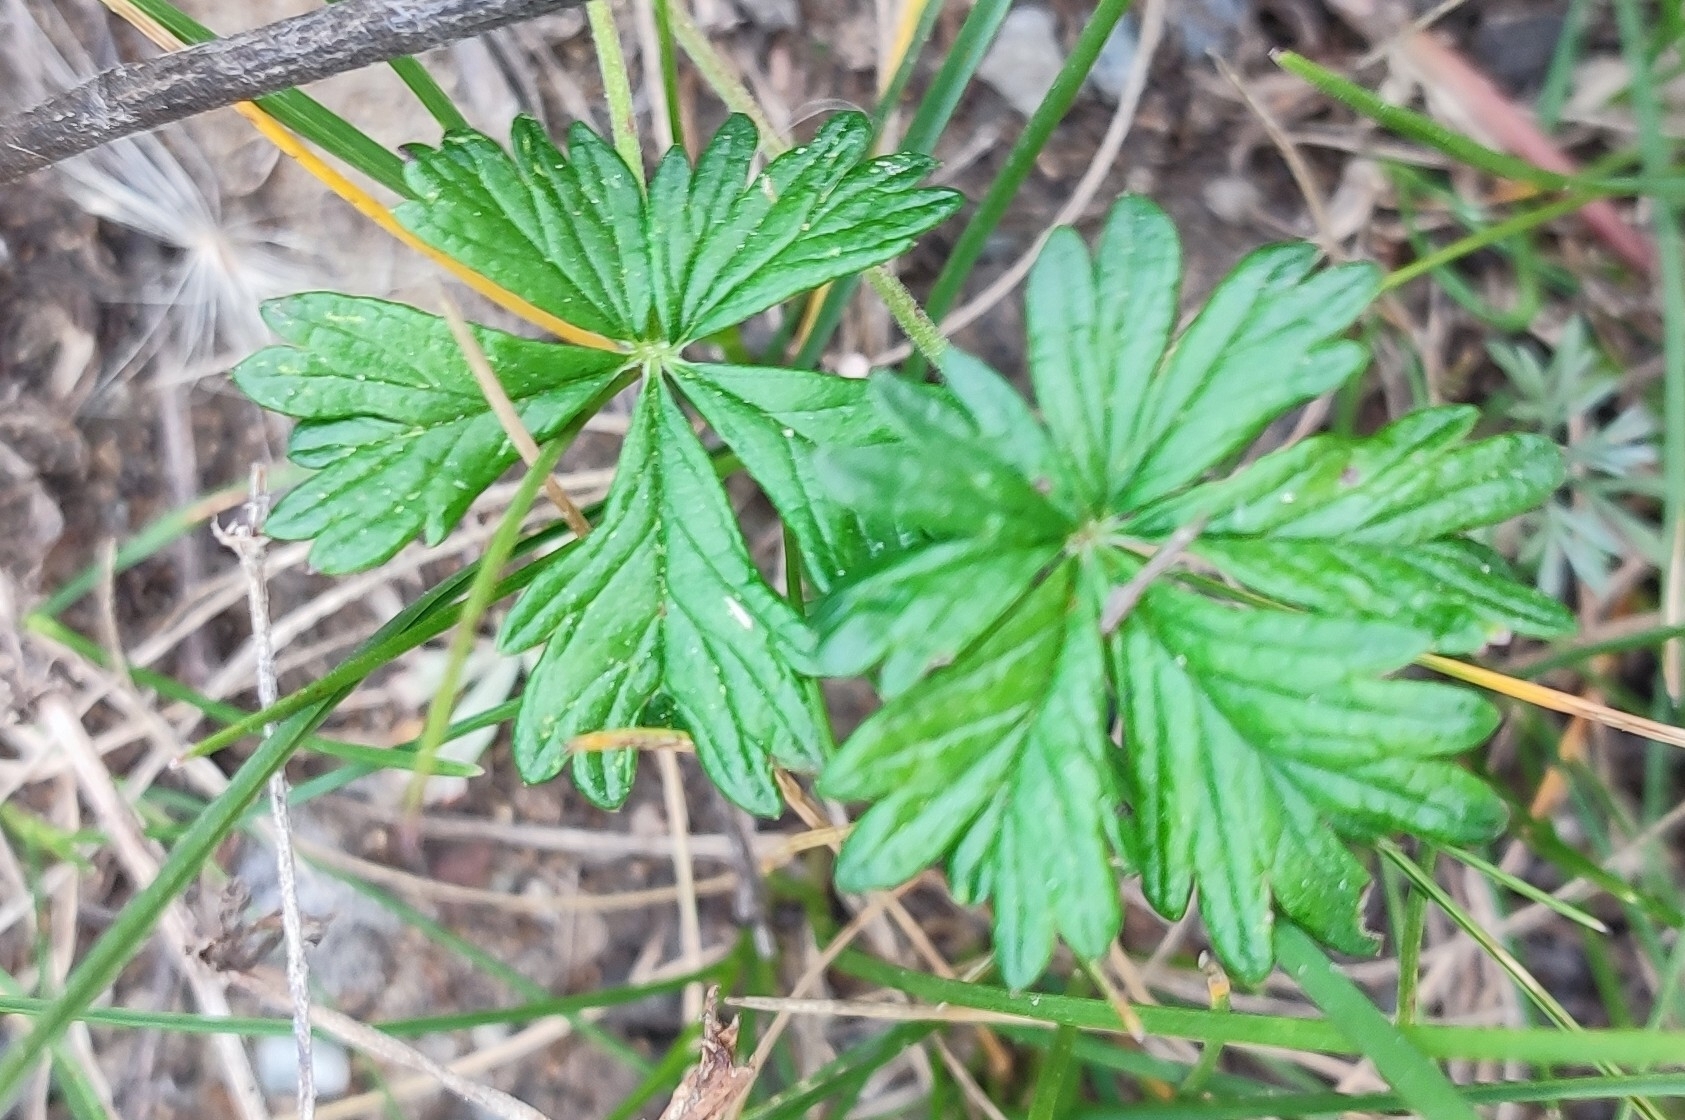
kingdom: Plantae
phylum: Tracheophyta
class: Magnoliopsida
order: Rosales
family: Rosaceae
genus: Potentilla
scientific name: Potentilla argentea
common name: Hoary cinquefoil
